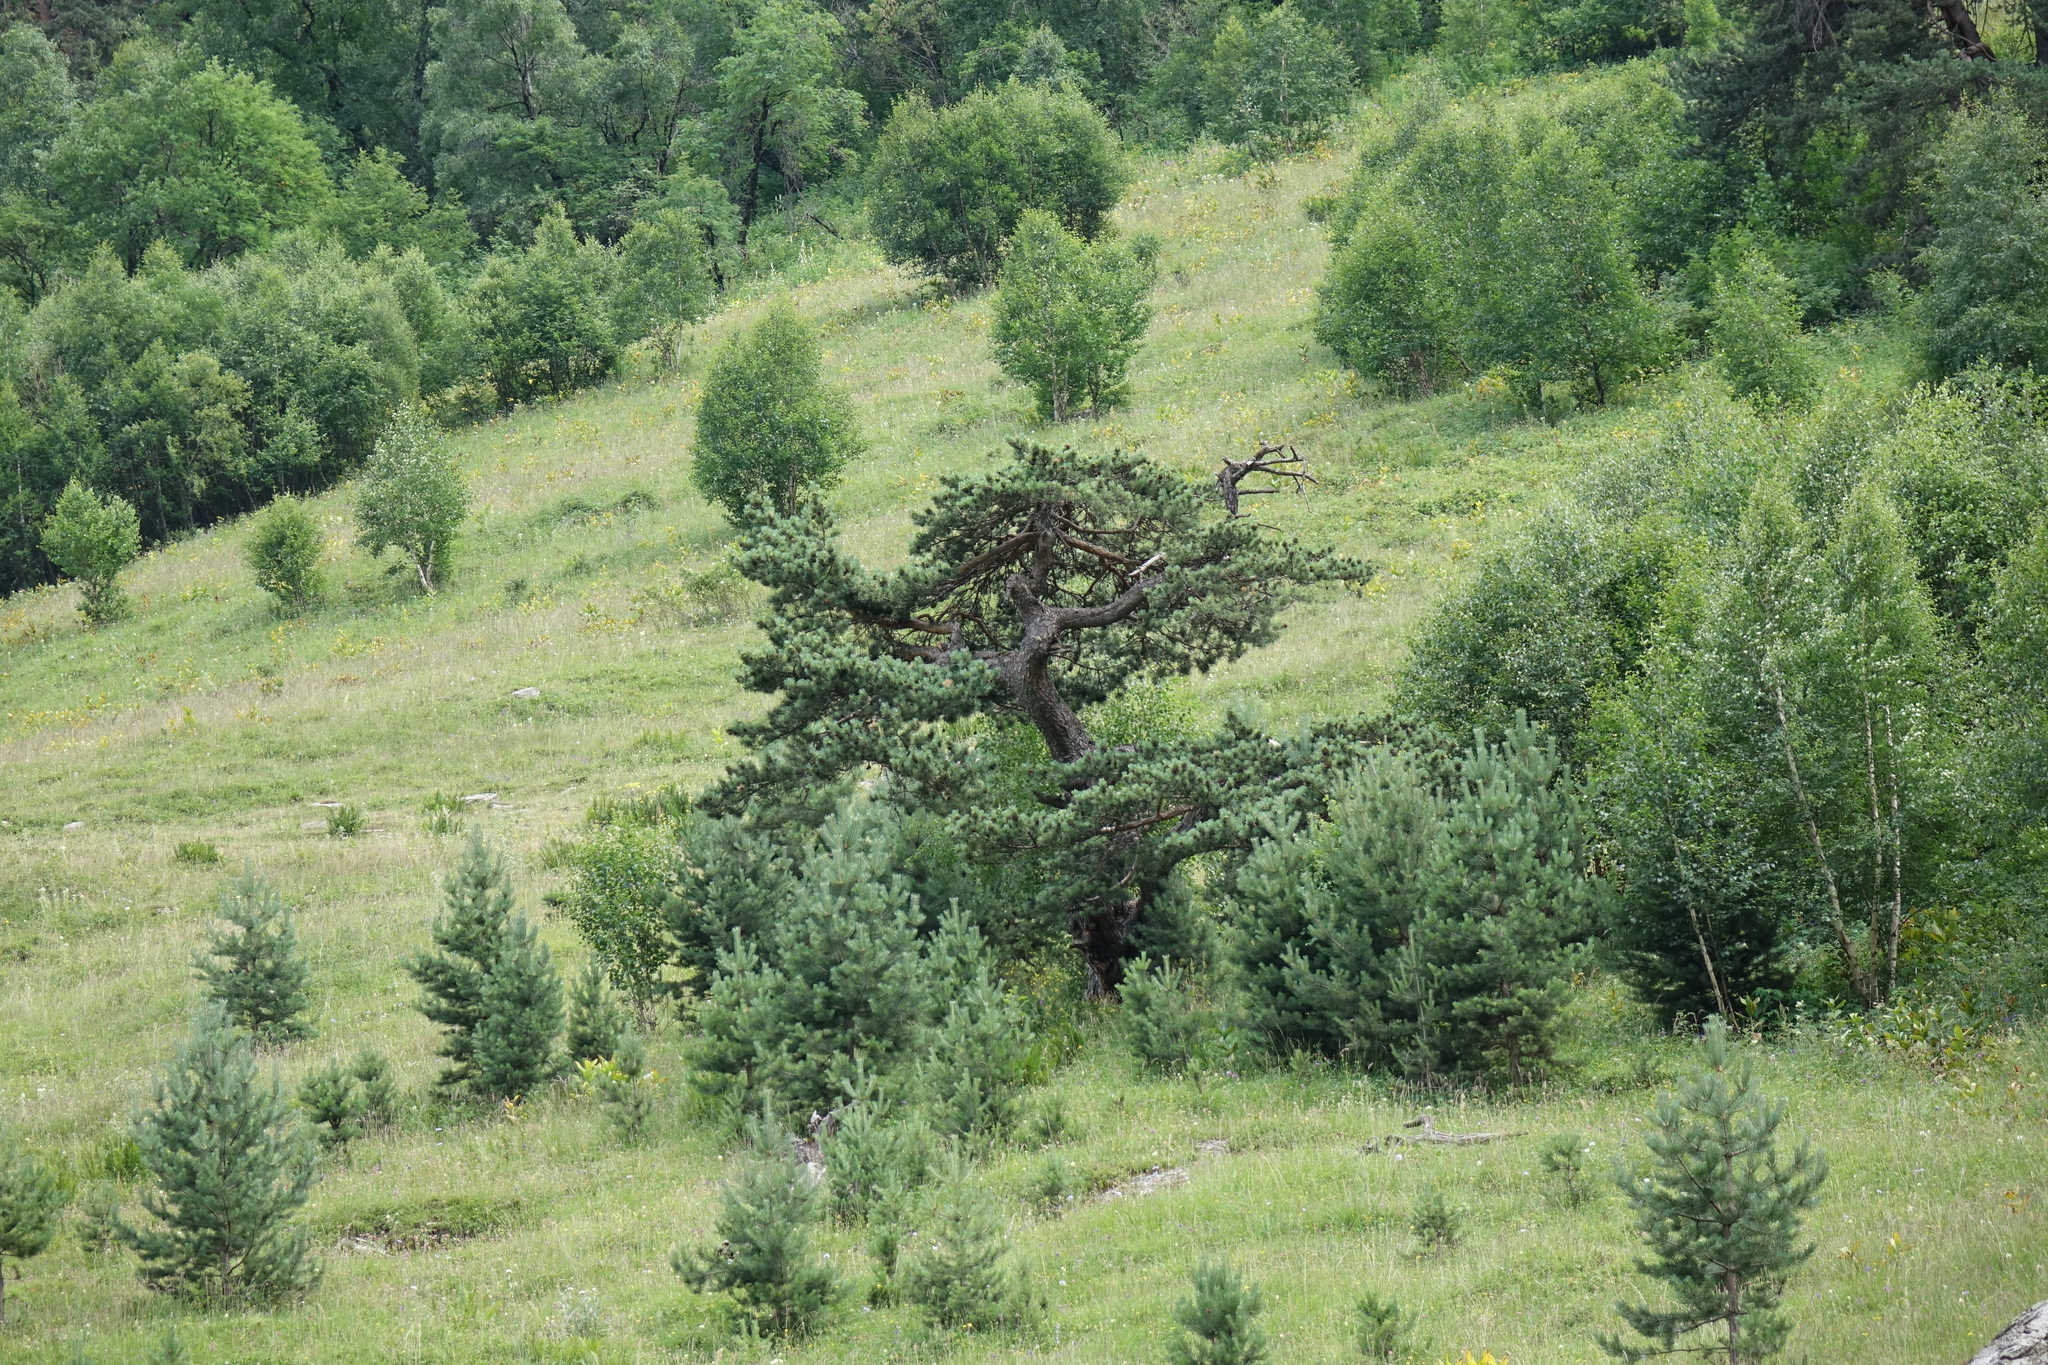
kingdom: Plantae
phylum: Tracheophyta
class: Pinopsida
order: Pinales
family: Pinaceae
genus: Pinus
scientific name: Pinus sylvestris
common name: Scots pine
